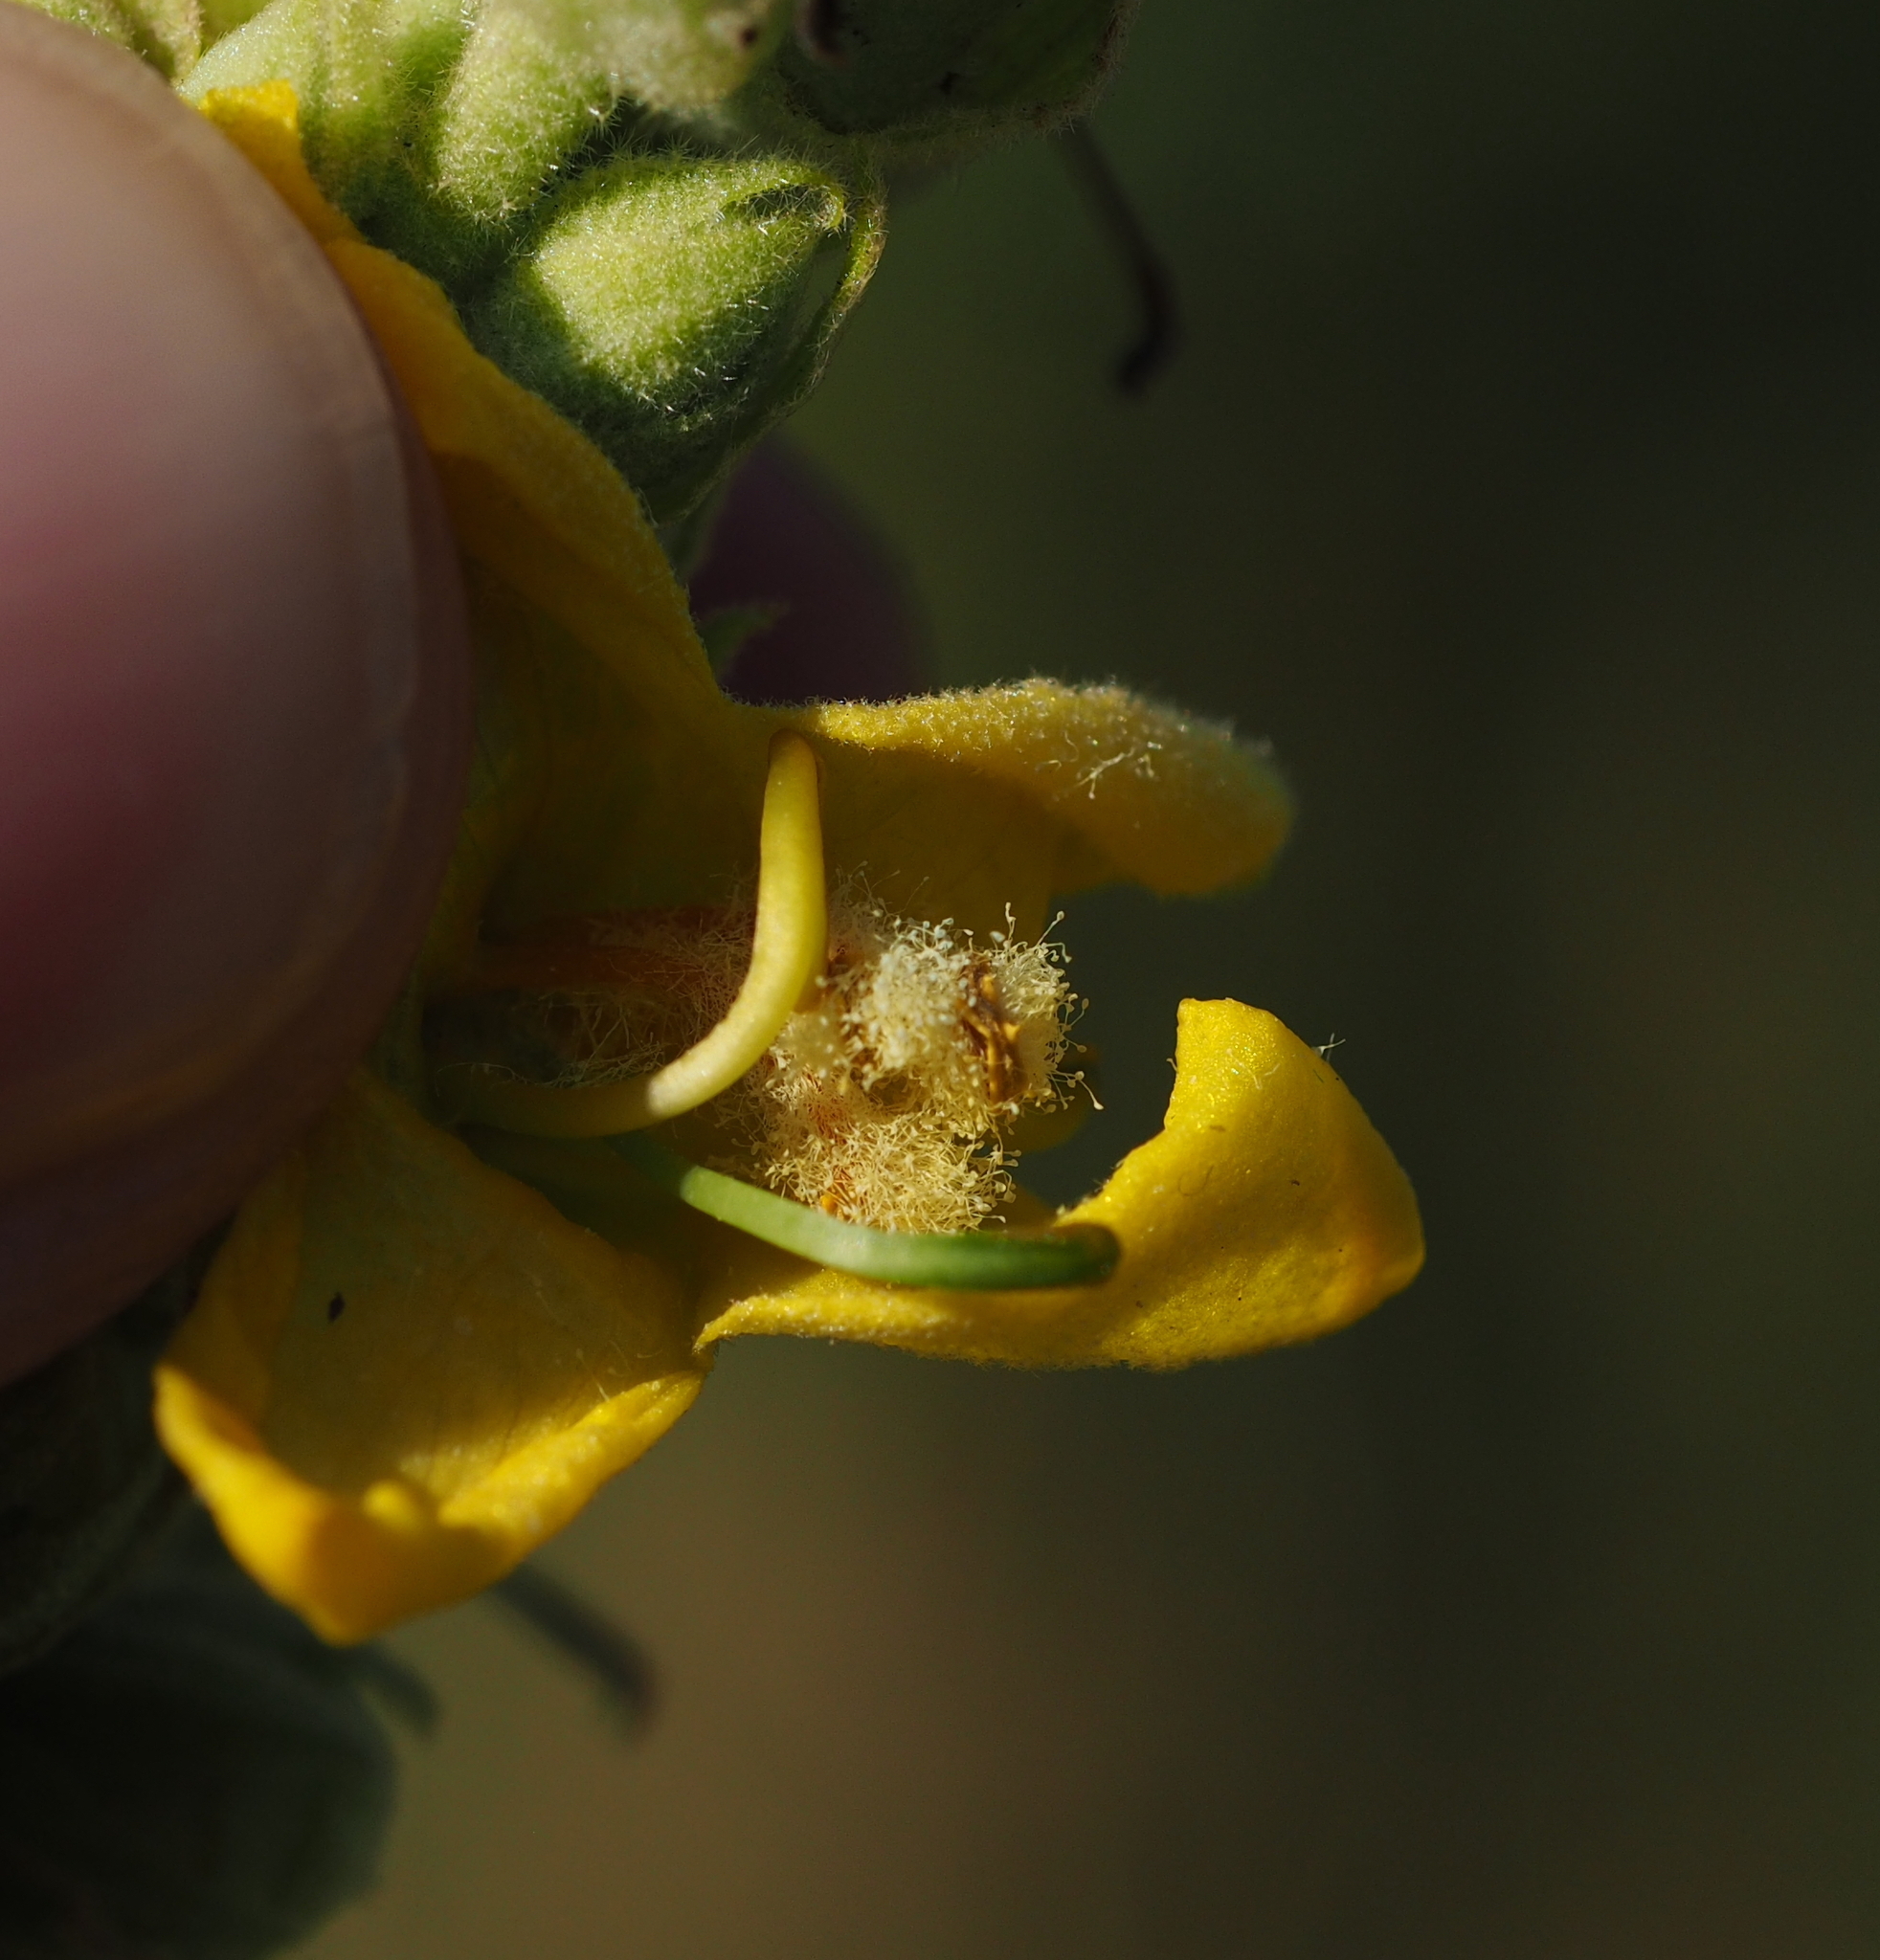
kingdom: Plantae
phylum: Tracheophyta
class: Magnoliopsida
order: Lamiales
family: Scrophulariaceae
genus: Verbascum
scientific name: Verbascum phlomoides
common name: Orange mullein
